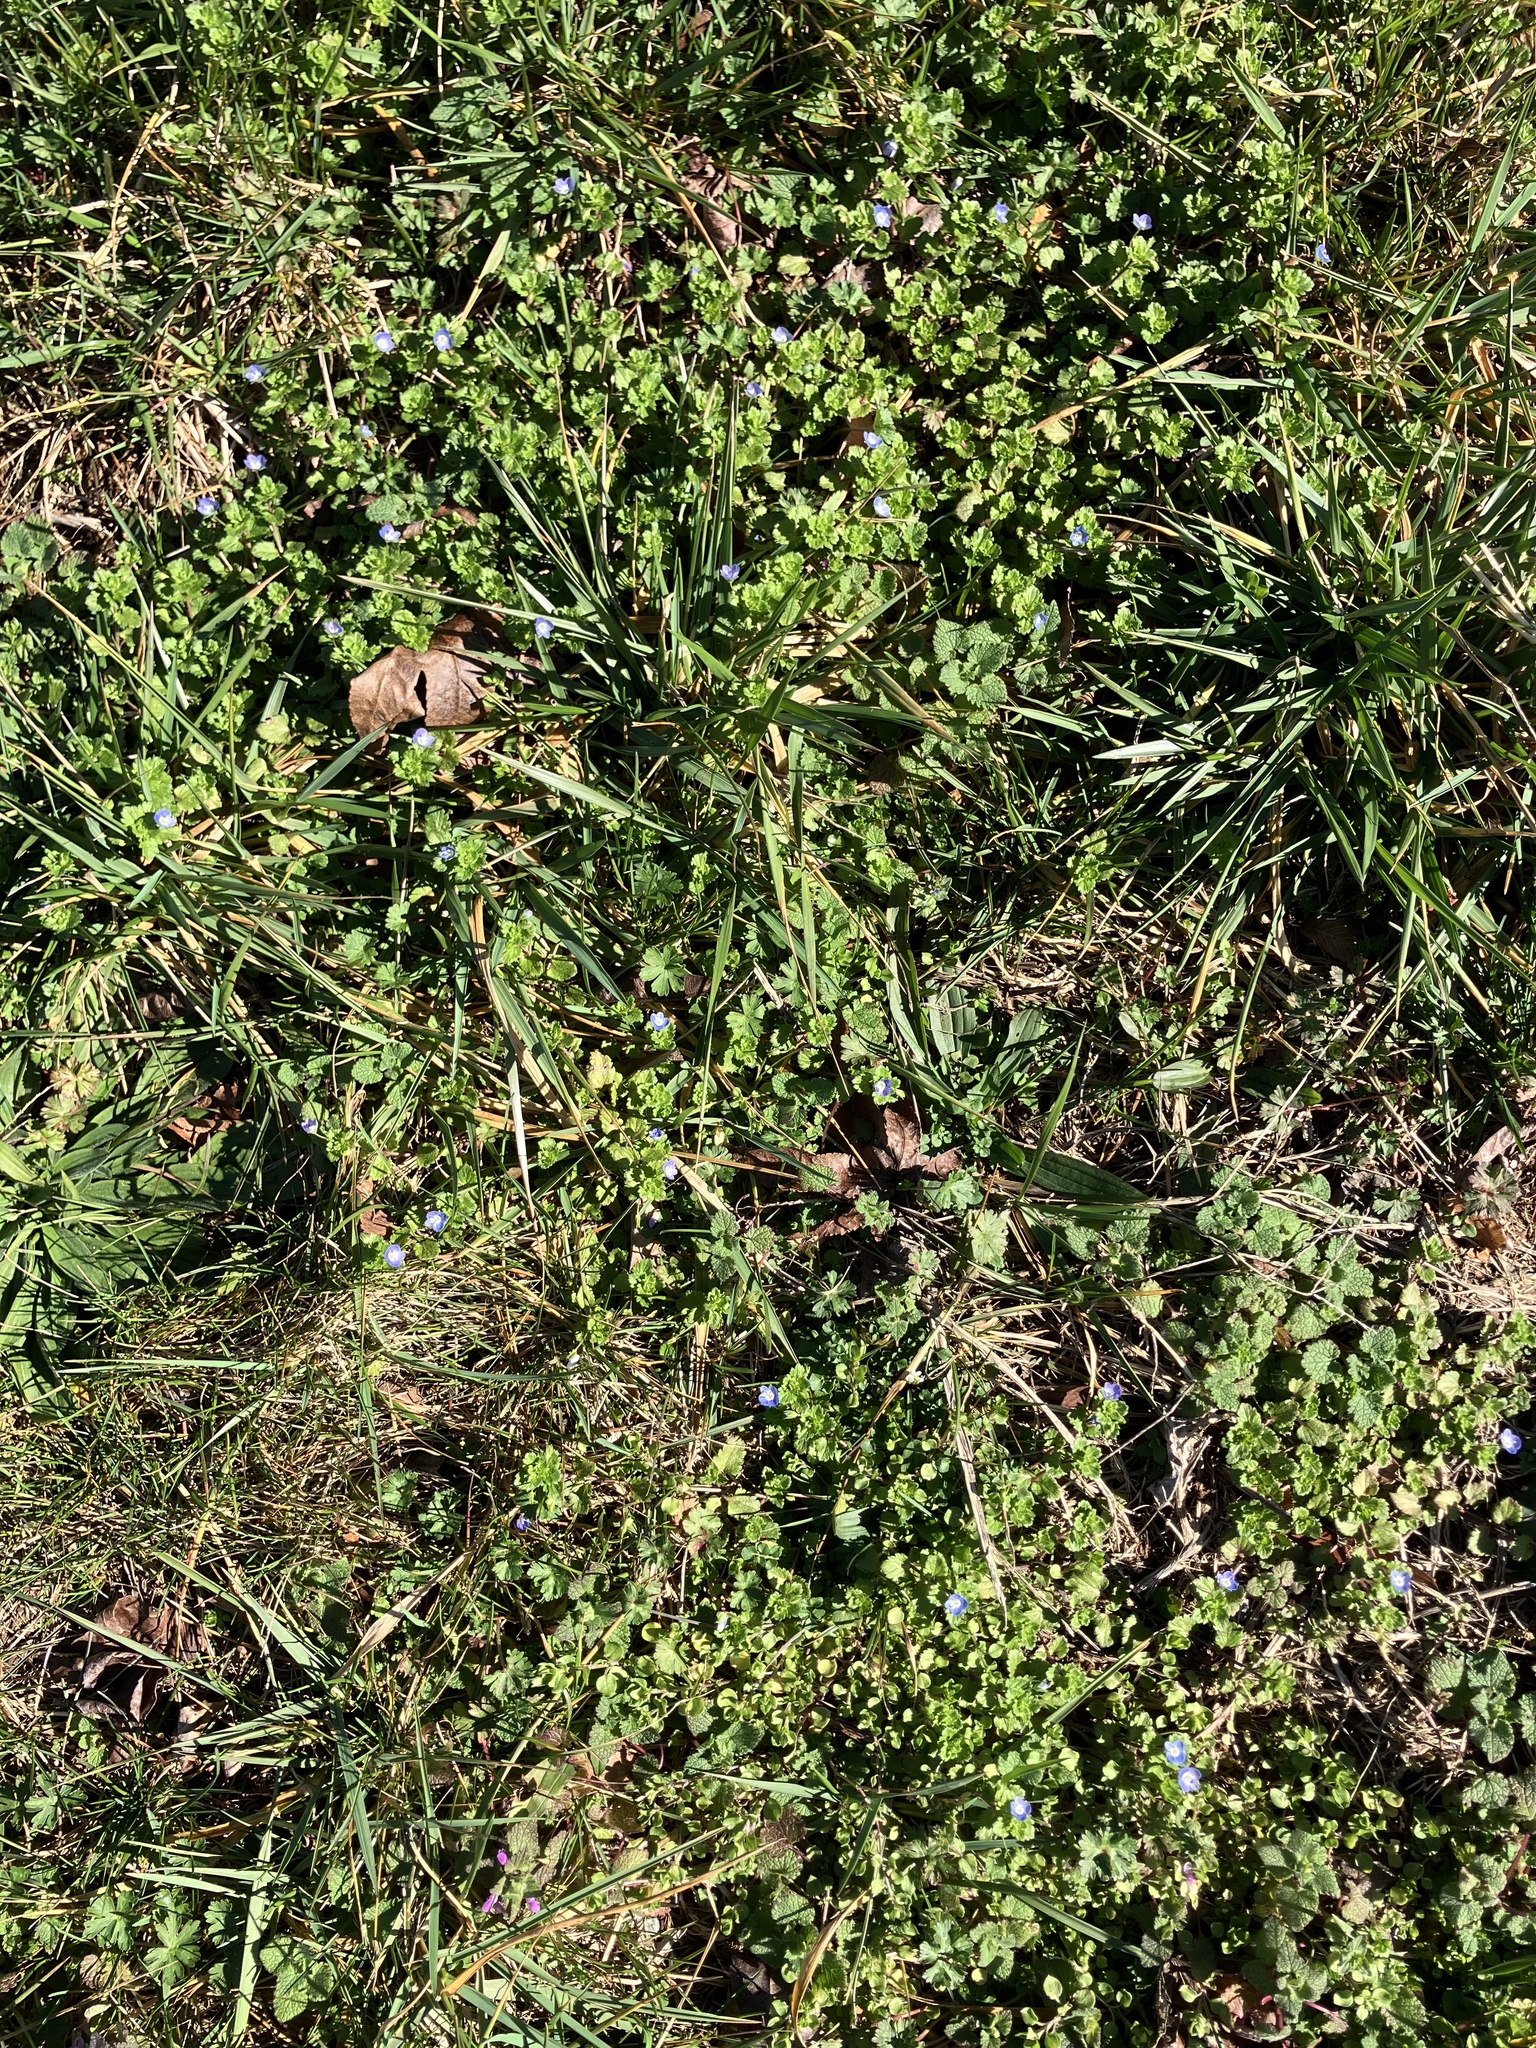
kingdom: Plantae
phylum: Tracheophyta
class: Magnoliopsida
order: Lamiales
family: Plantaginaceae
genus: Veronica
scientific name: Veronica persica
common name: Common field-speedwell
